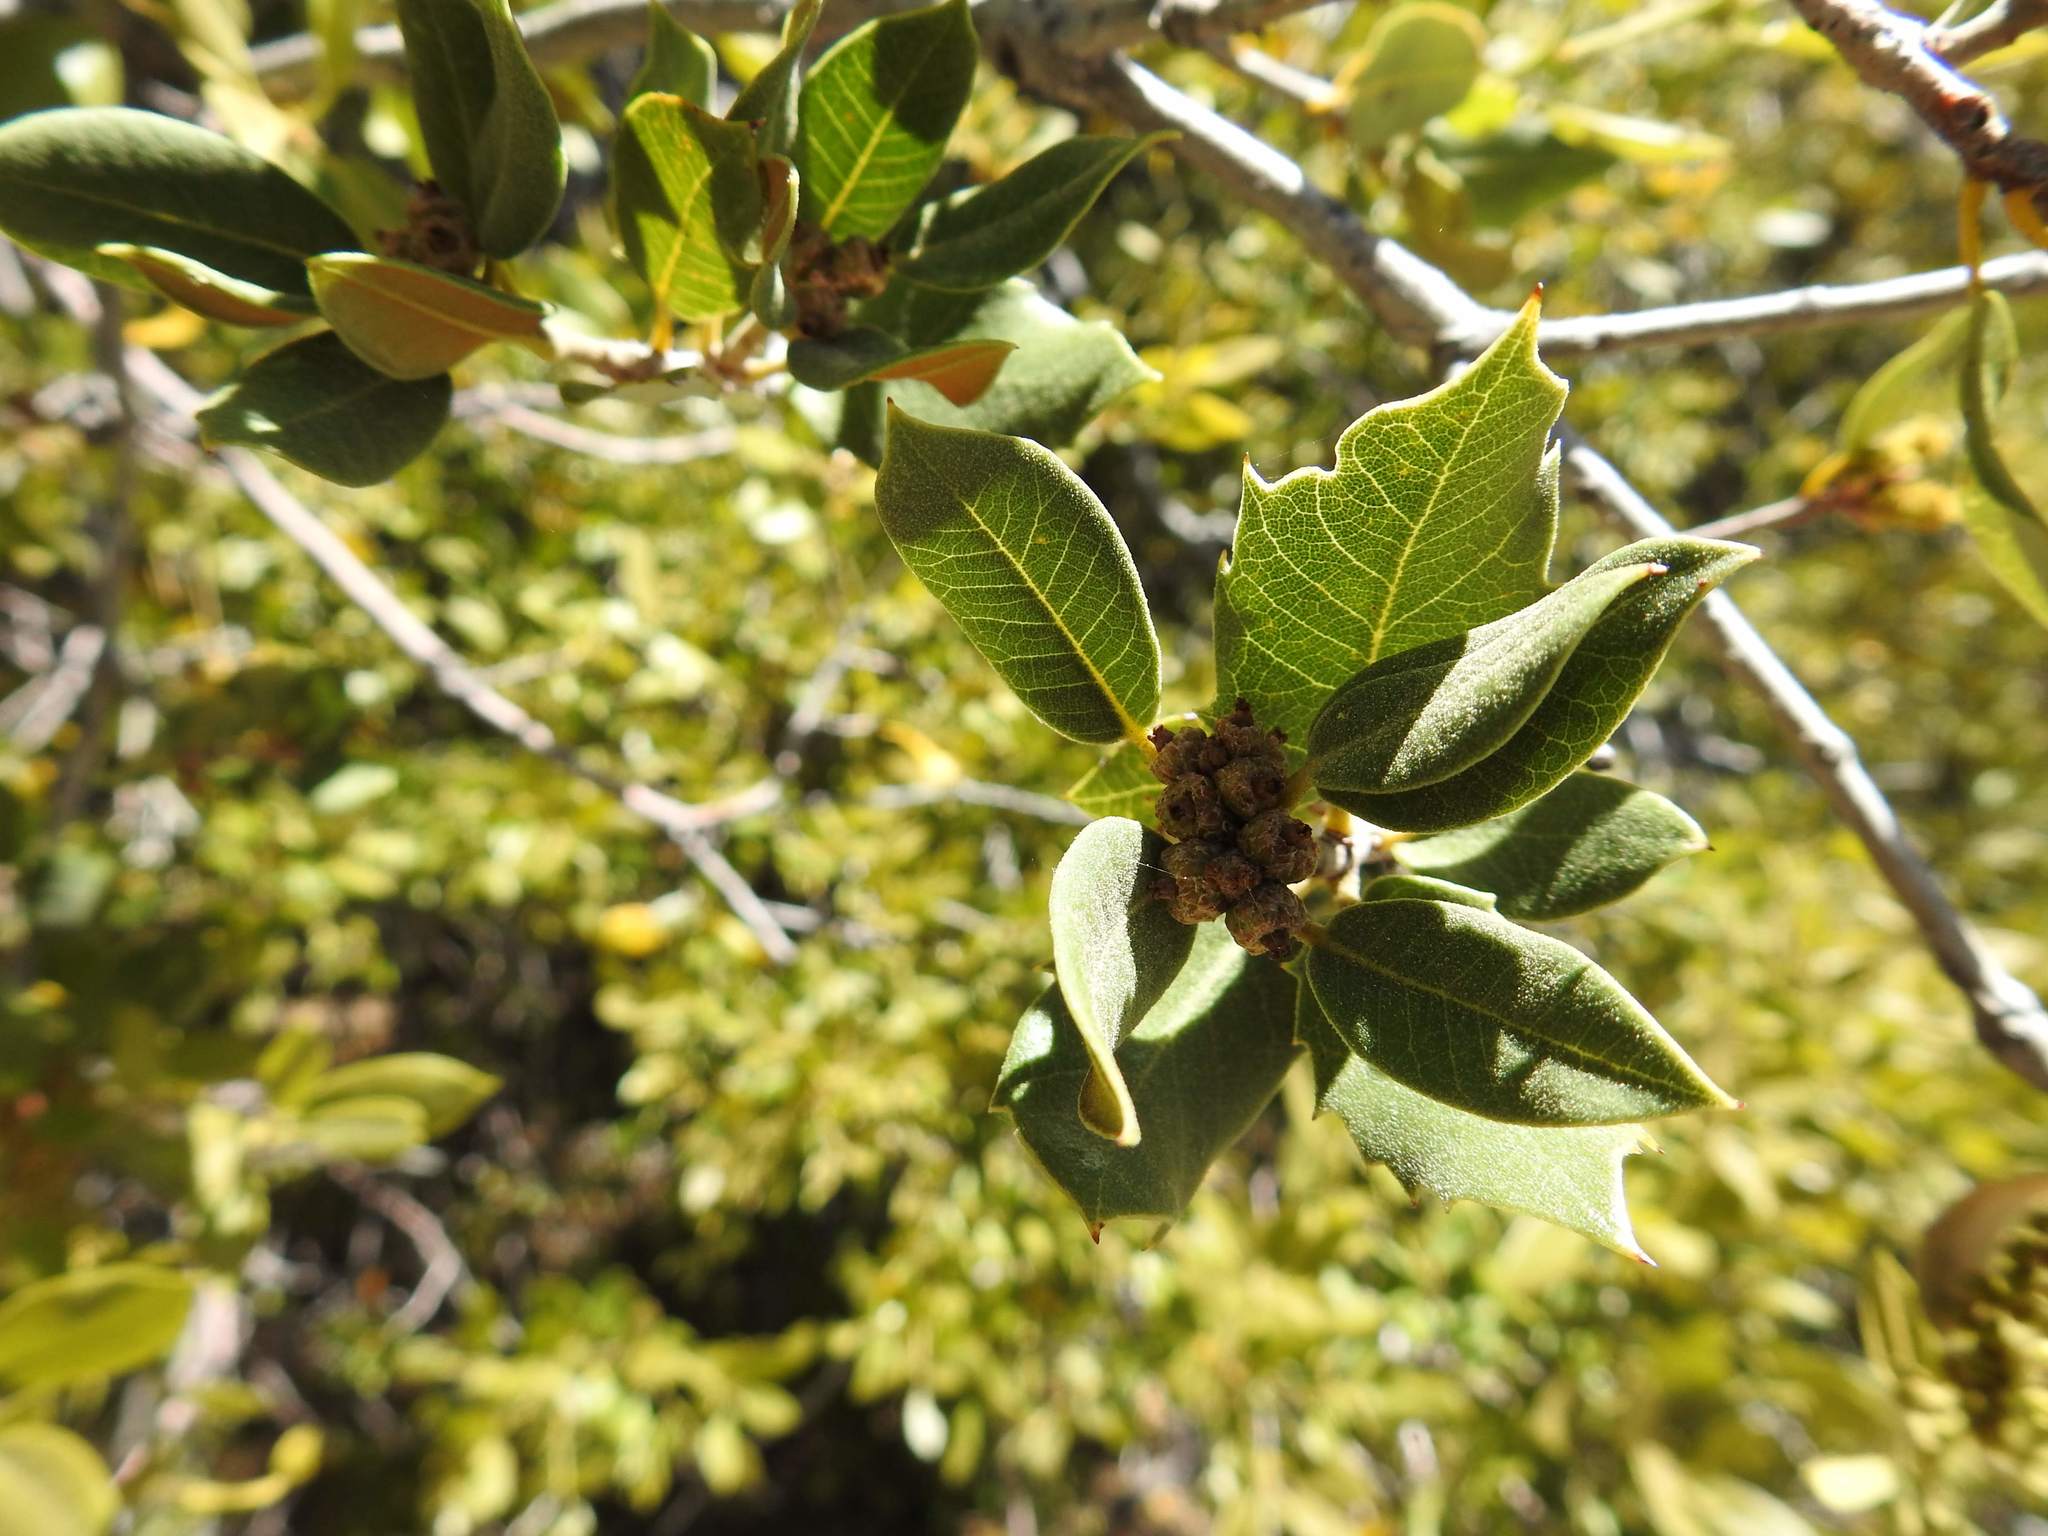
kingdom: Plantae
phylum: Tracheophyta
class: Magnoliopsida
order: Fagales
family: Fagaceae
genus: Quercus
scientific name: Quercus chrysolepis
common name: Canyon live oak
